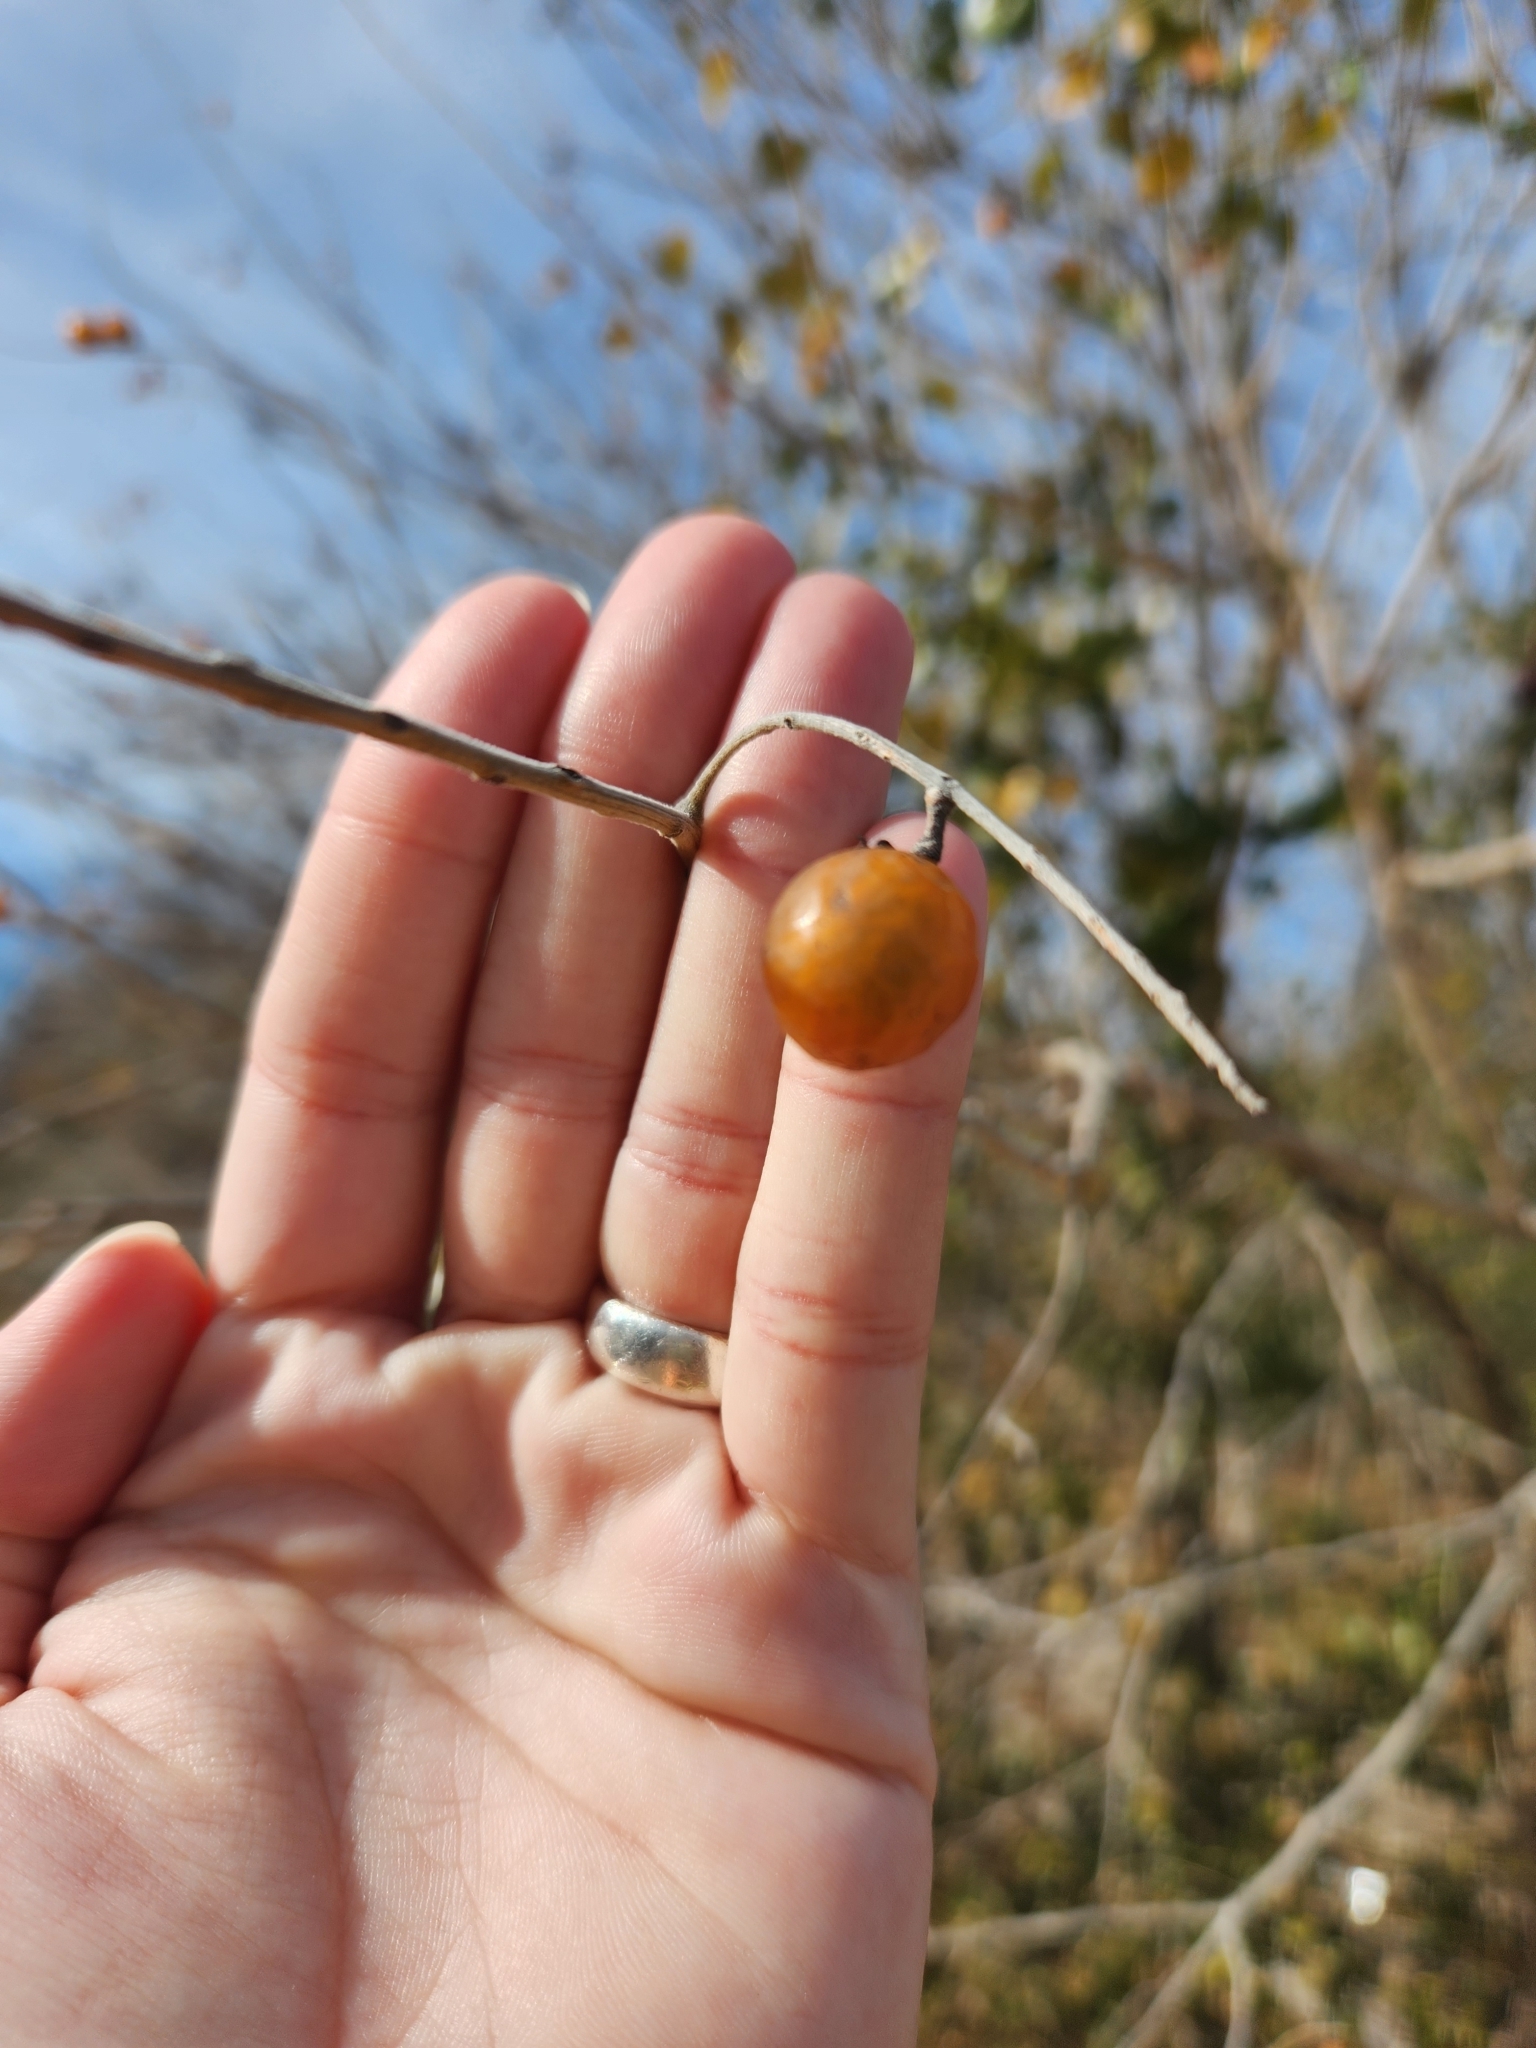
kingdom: Plantae
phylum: Tracheophyta
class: Magnoliopsida
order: Sapindales
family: Sapindaceae
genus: Sapindus
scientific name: Sapindus drummondii
